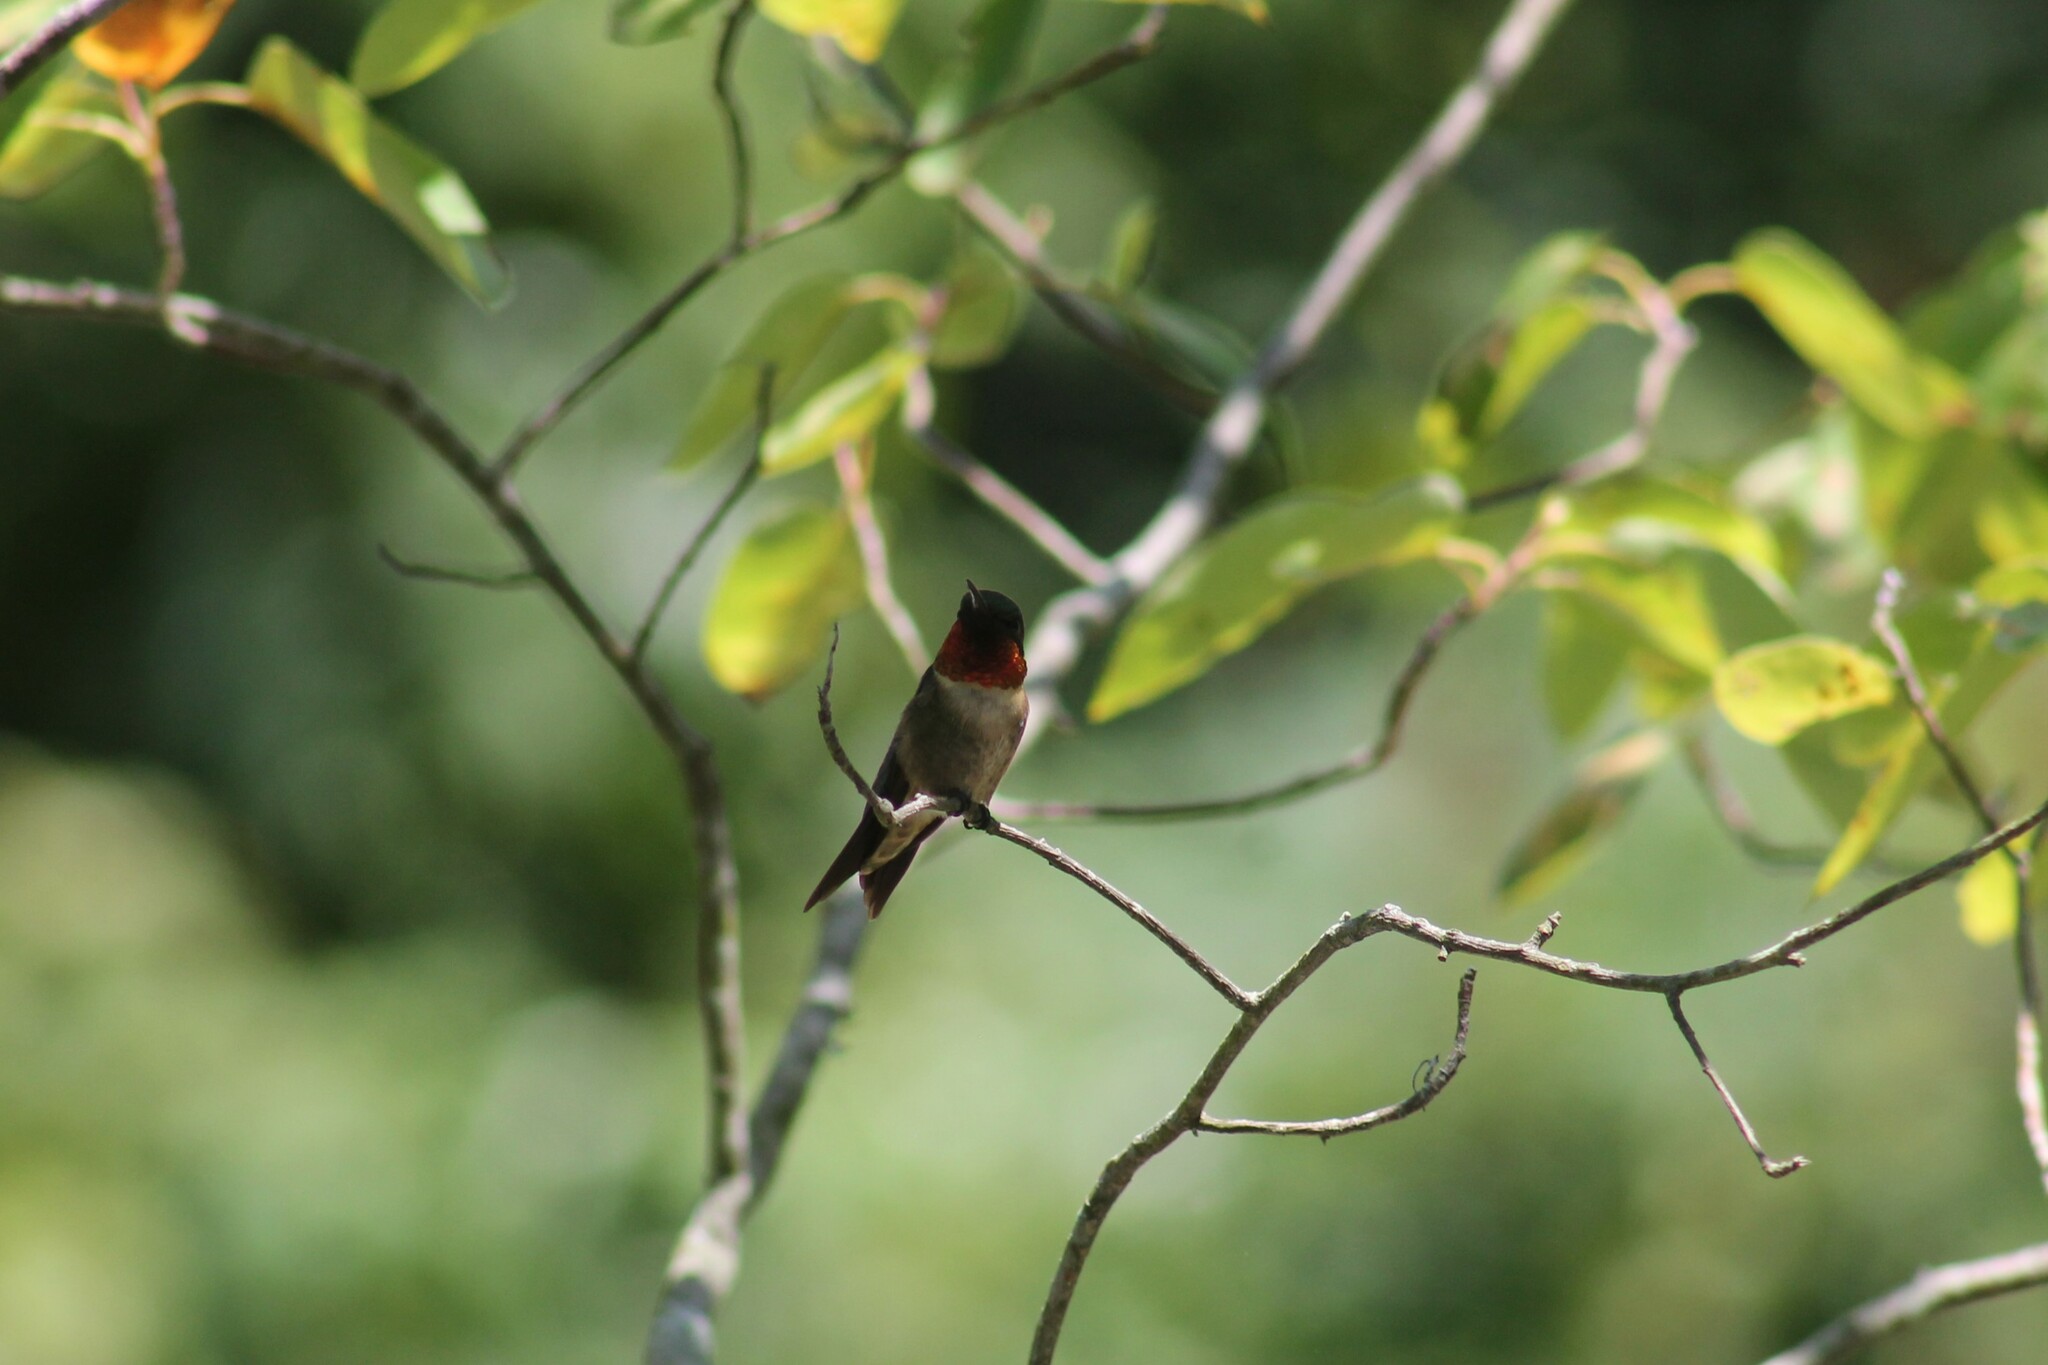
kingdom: Animalia
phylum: Chordata
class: Aves
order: Apodiformes
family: Trochilidae
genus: Archilochus
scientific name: Archilochus colubris
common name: Ruby-throated hummingbird
